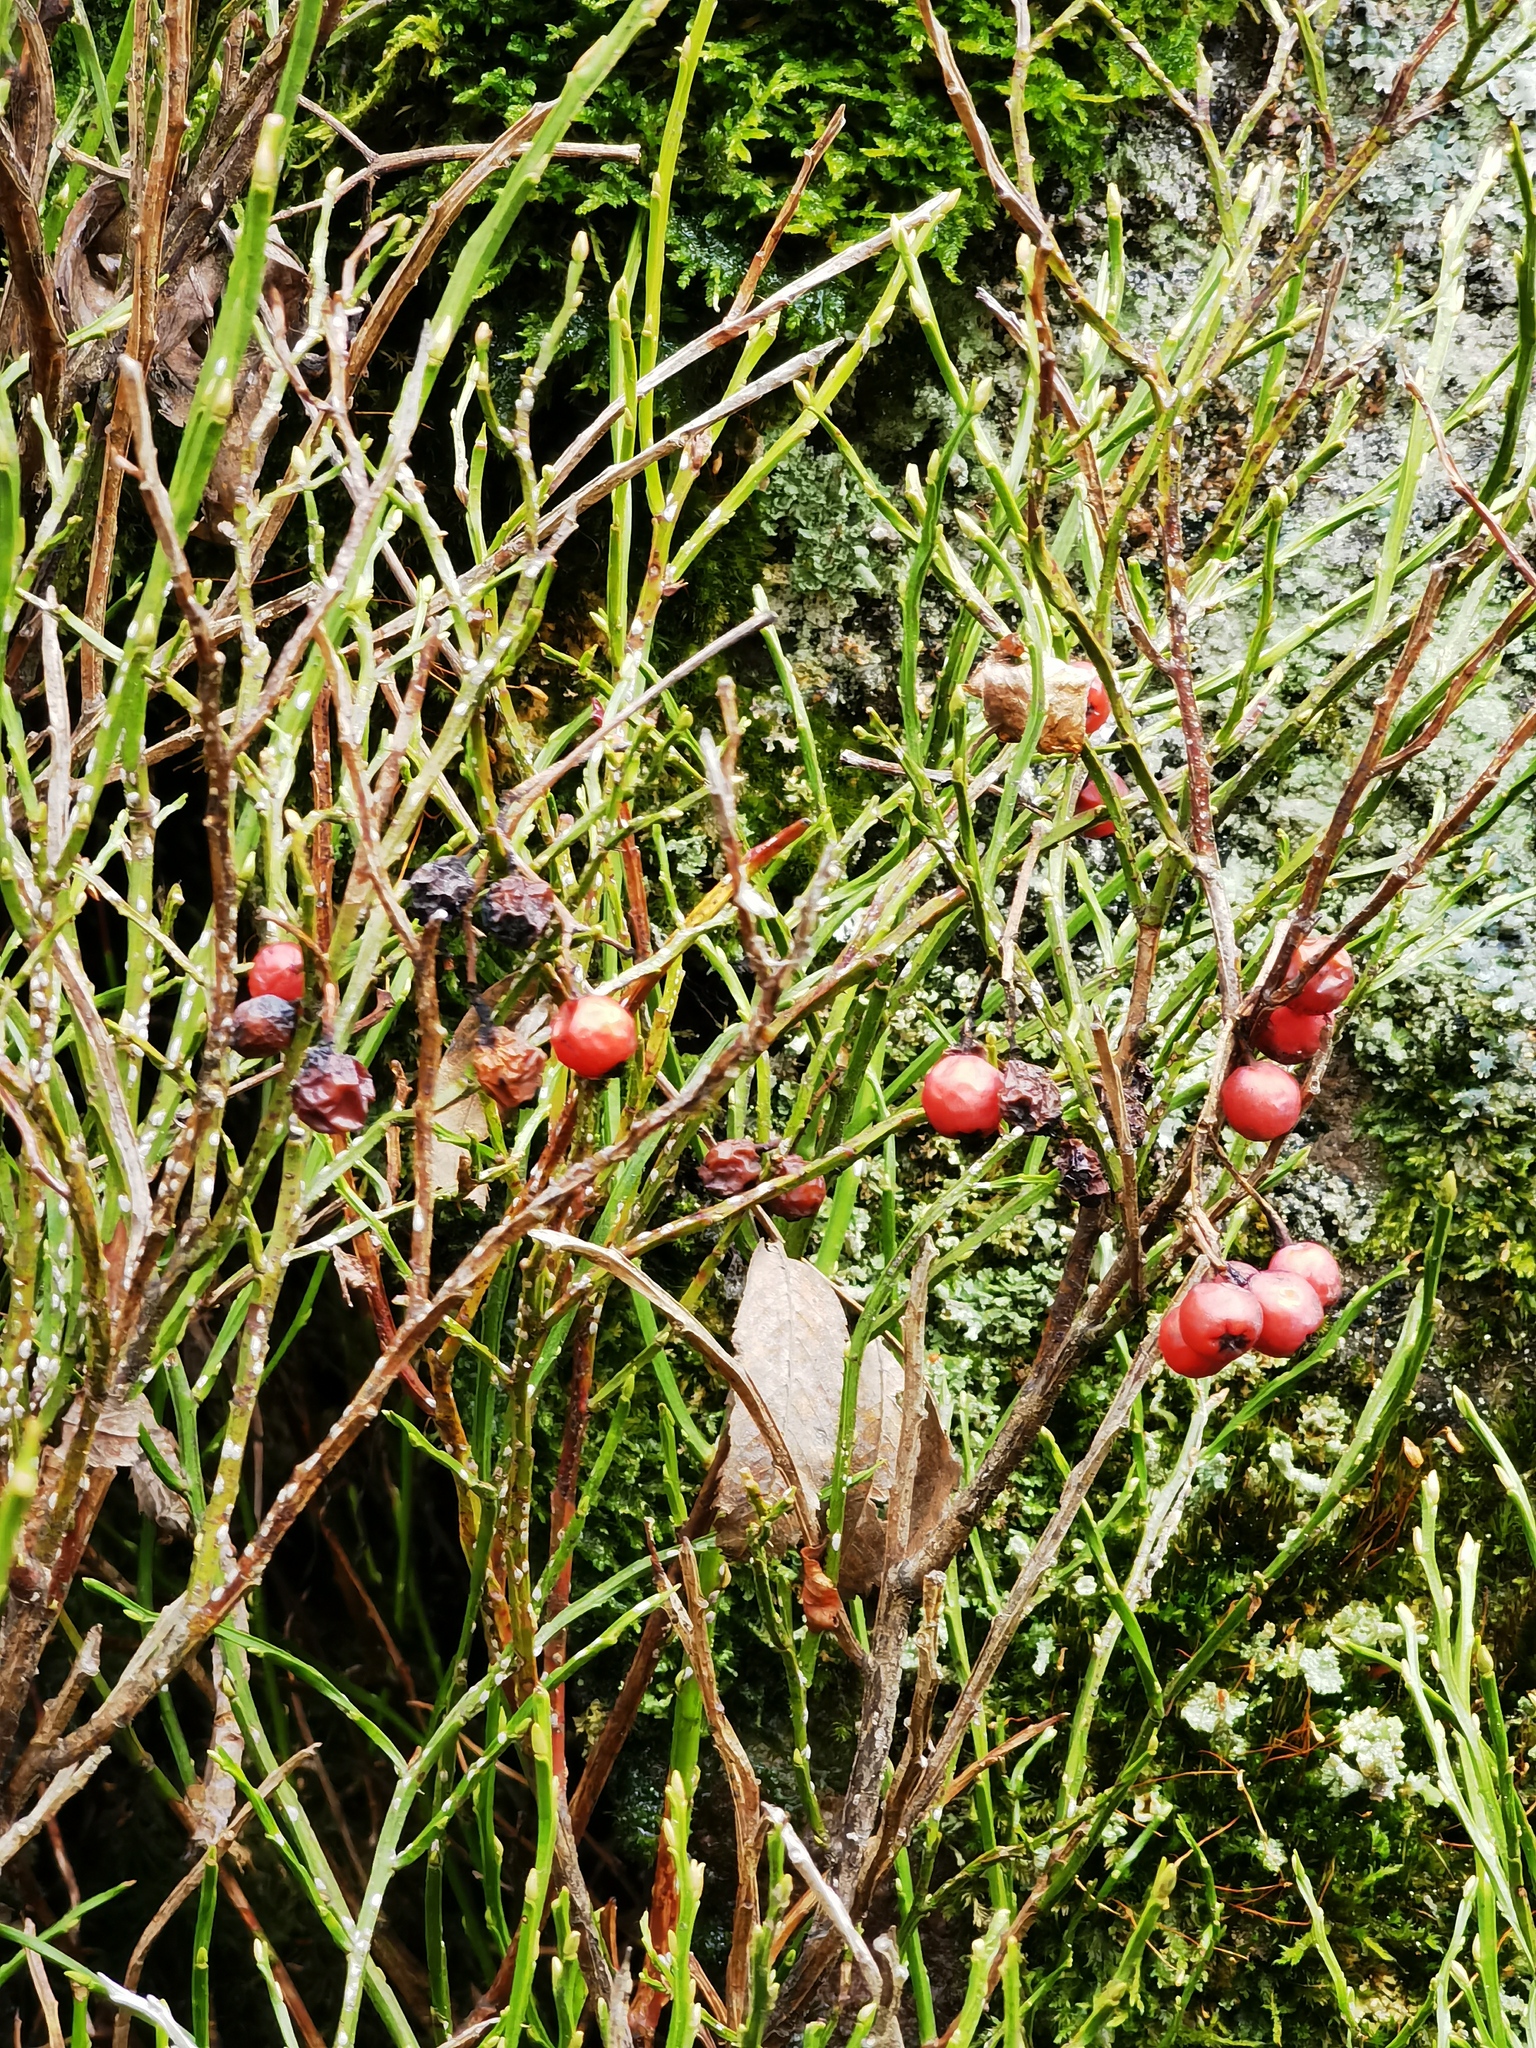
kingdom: Plantae
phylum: Tracheophyta
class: Magnoliopsida
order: Ericales
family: Ericaceae
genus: Vaccinium
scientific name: Vaccinium myrtillus
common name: Bilberry
